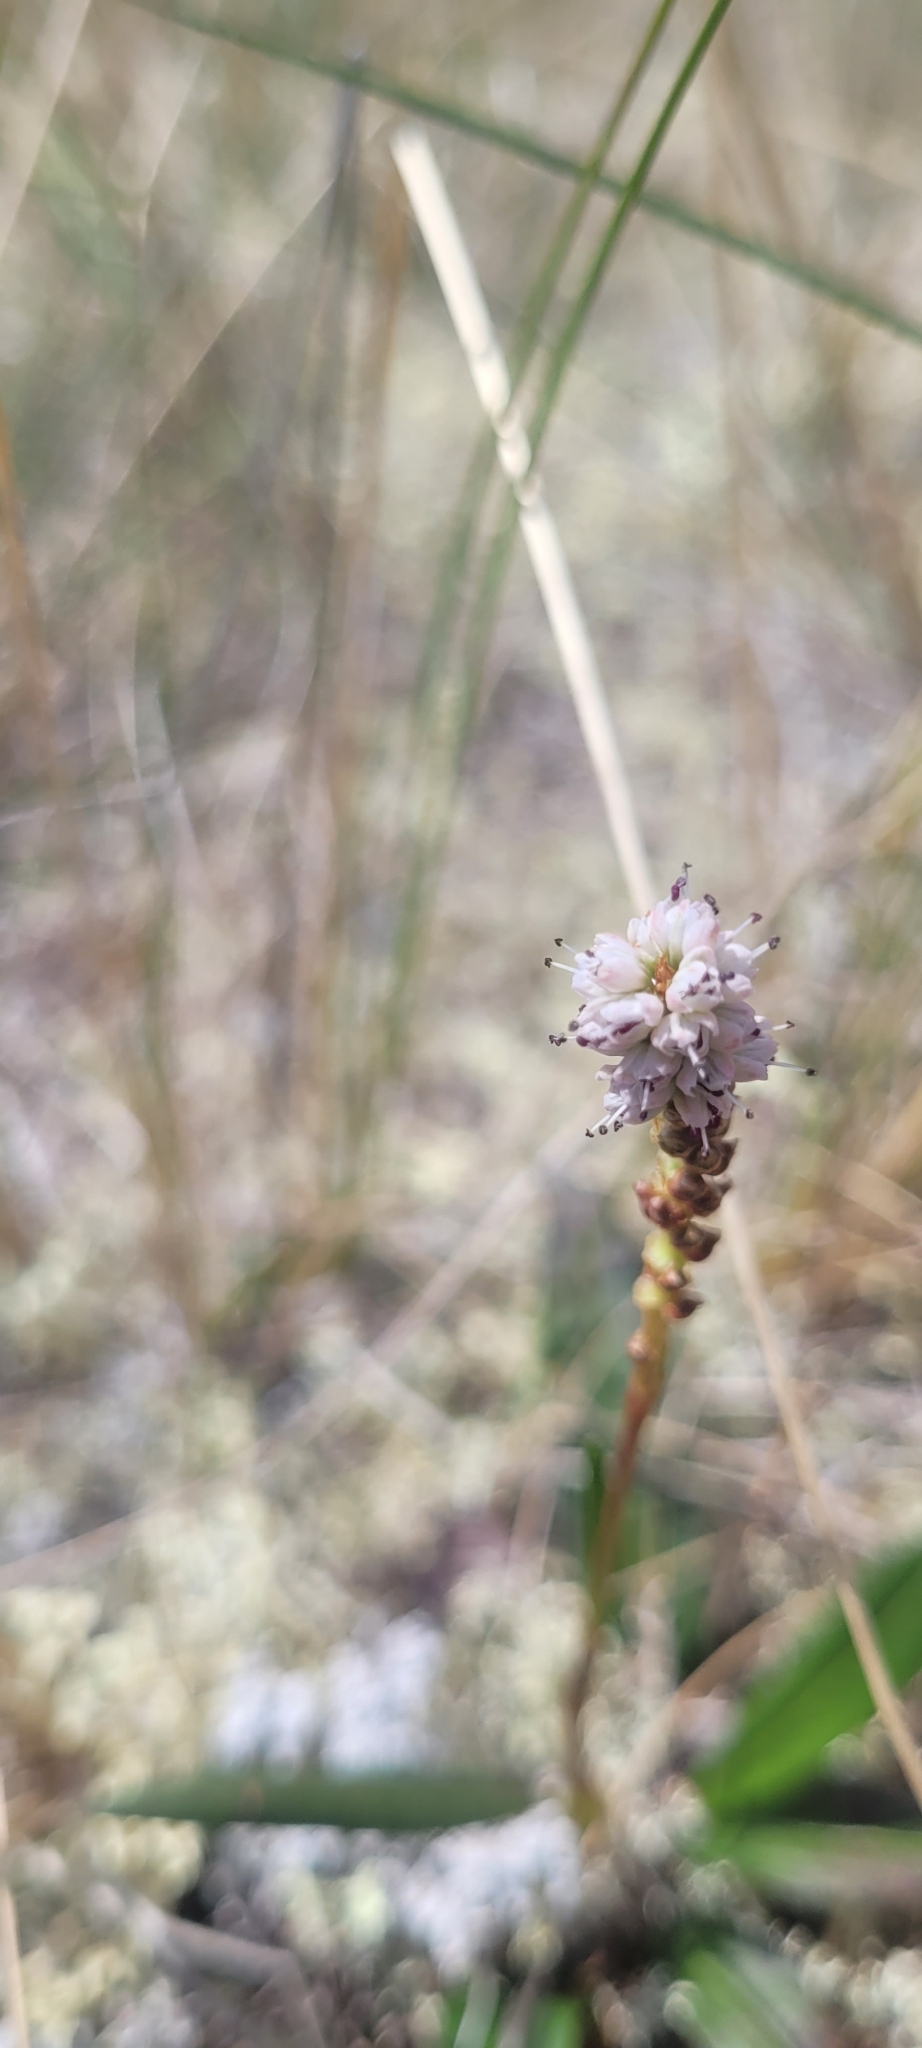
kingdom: Plantae
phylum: Tracheophyta
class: Magnoliopsida
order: Caryophyllales
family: Polygonaceae
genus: Bistorta
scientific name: Bistorta vivipara
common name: Alpine bistort
